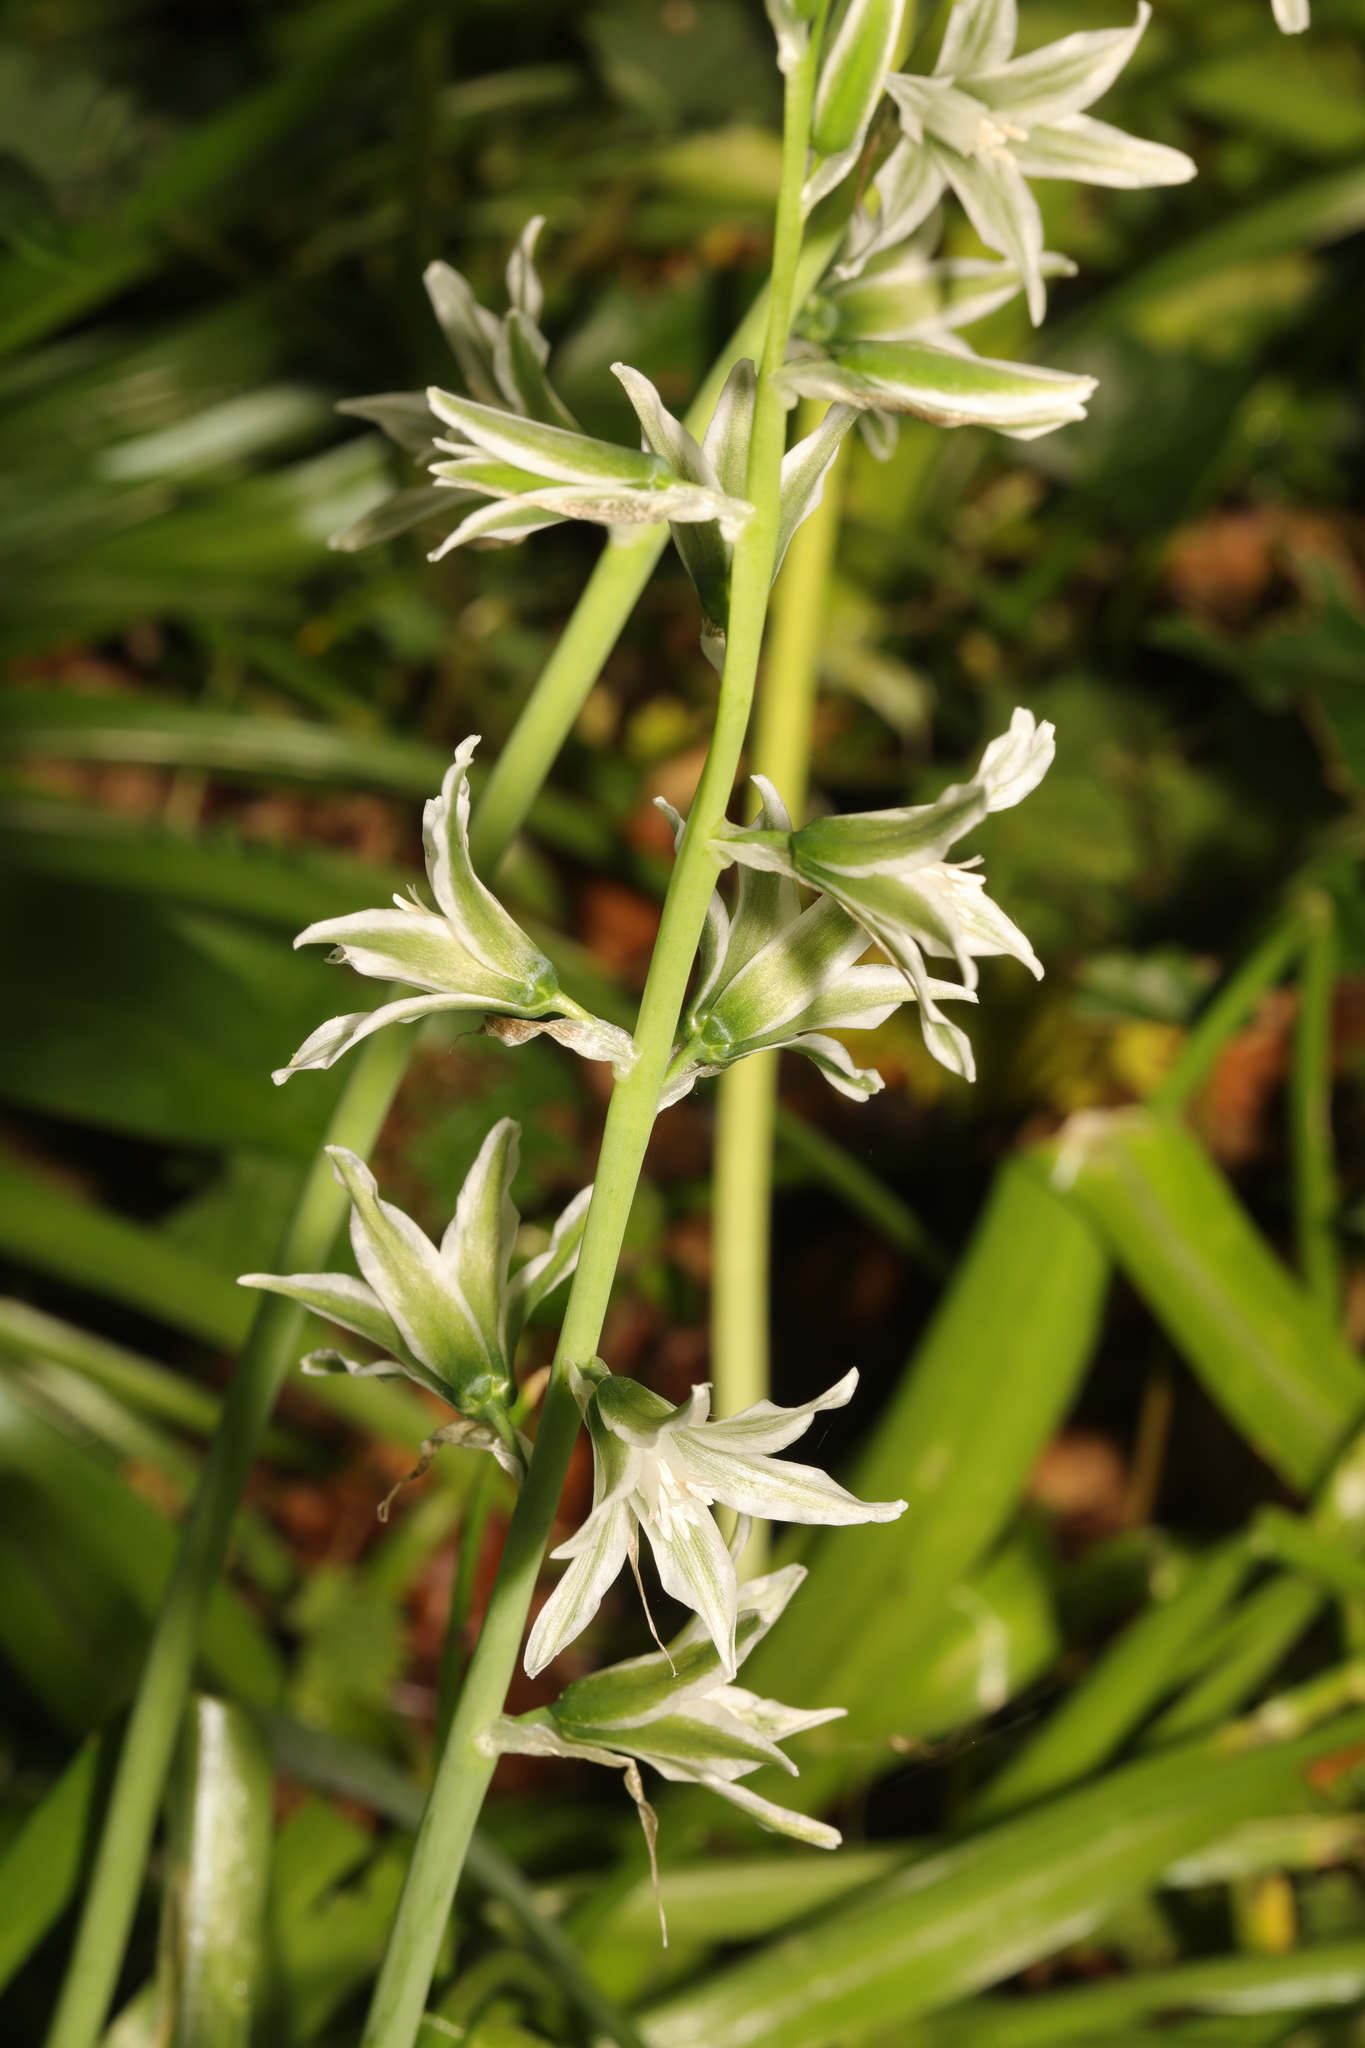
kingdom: Plantae
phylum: Tracheophyta
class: Liliopsida
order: Asparagales
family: Asparagaceae
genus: Ornithogalum
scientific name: Ornithogalum nutans
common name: Drooping star-of-bethlehem
